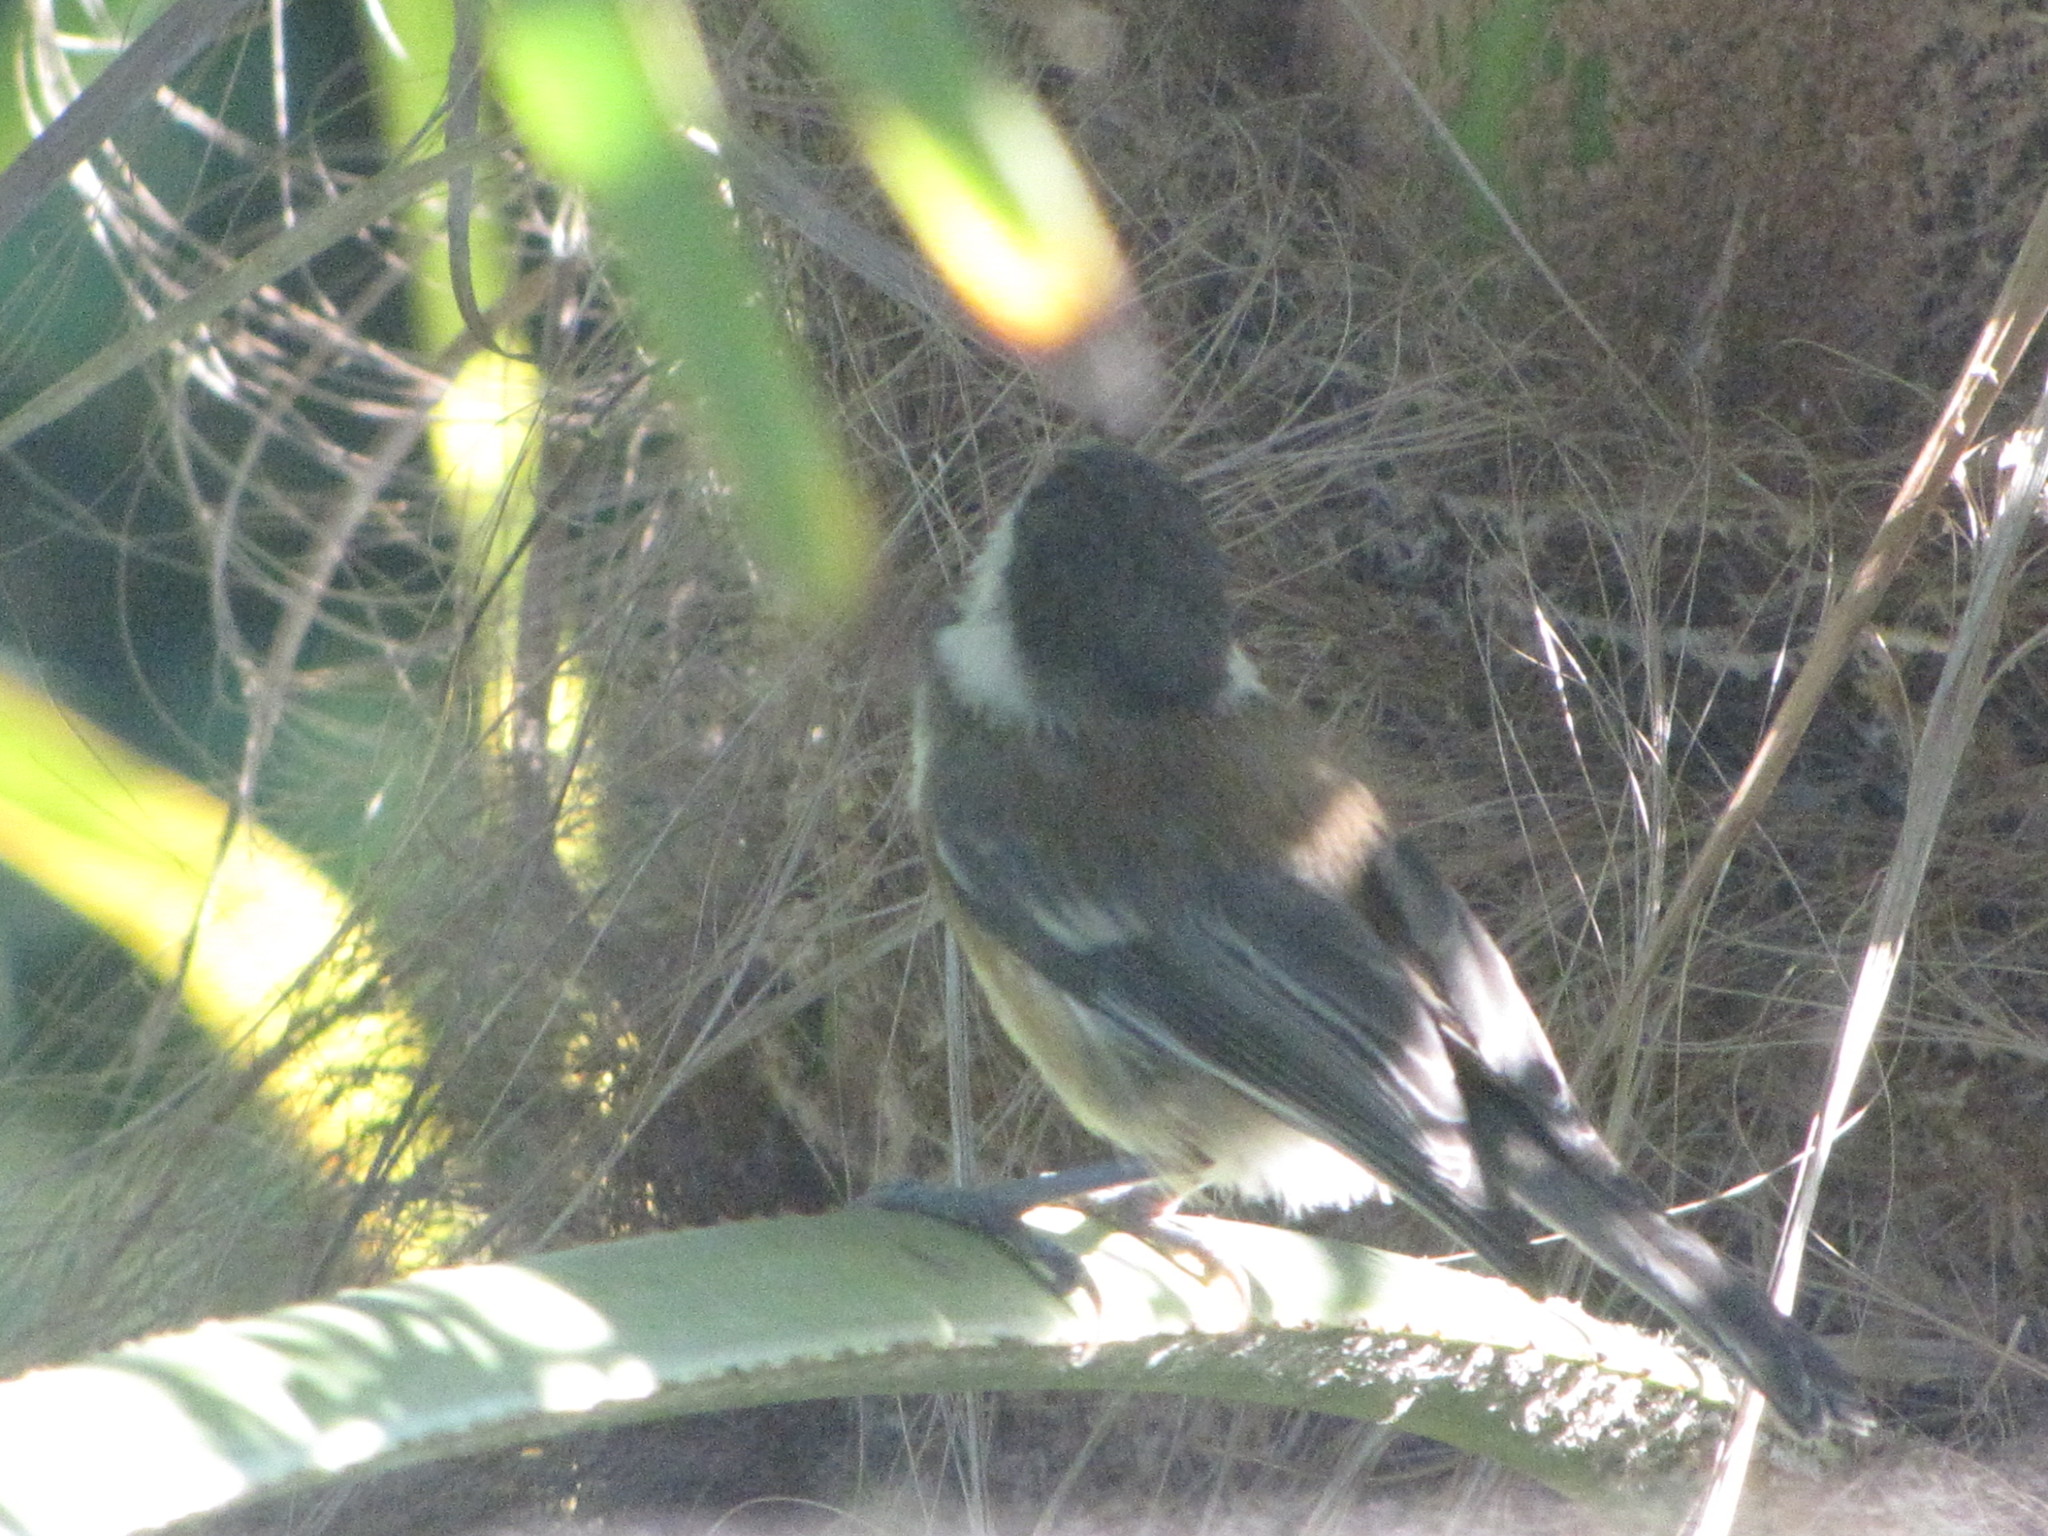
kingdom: Animalia
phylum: Chordata
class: Aves
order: Passeriformes
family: Paridae
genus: Poecile
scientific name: Poecile rufescens
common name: Chestnut-backed chickadee
